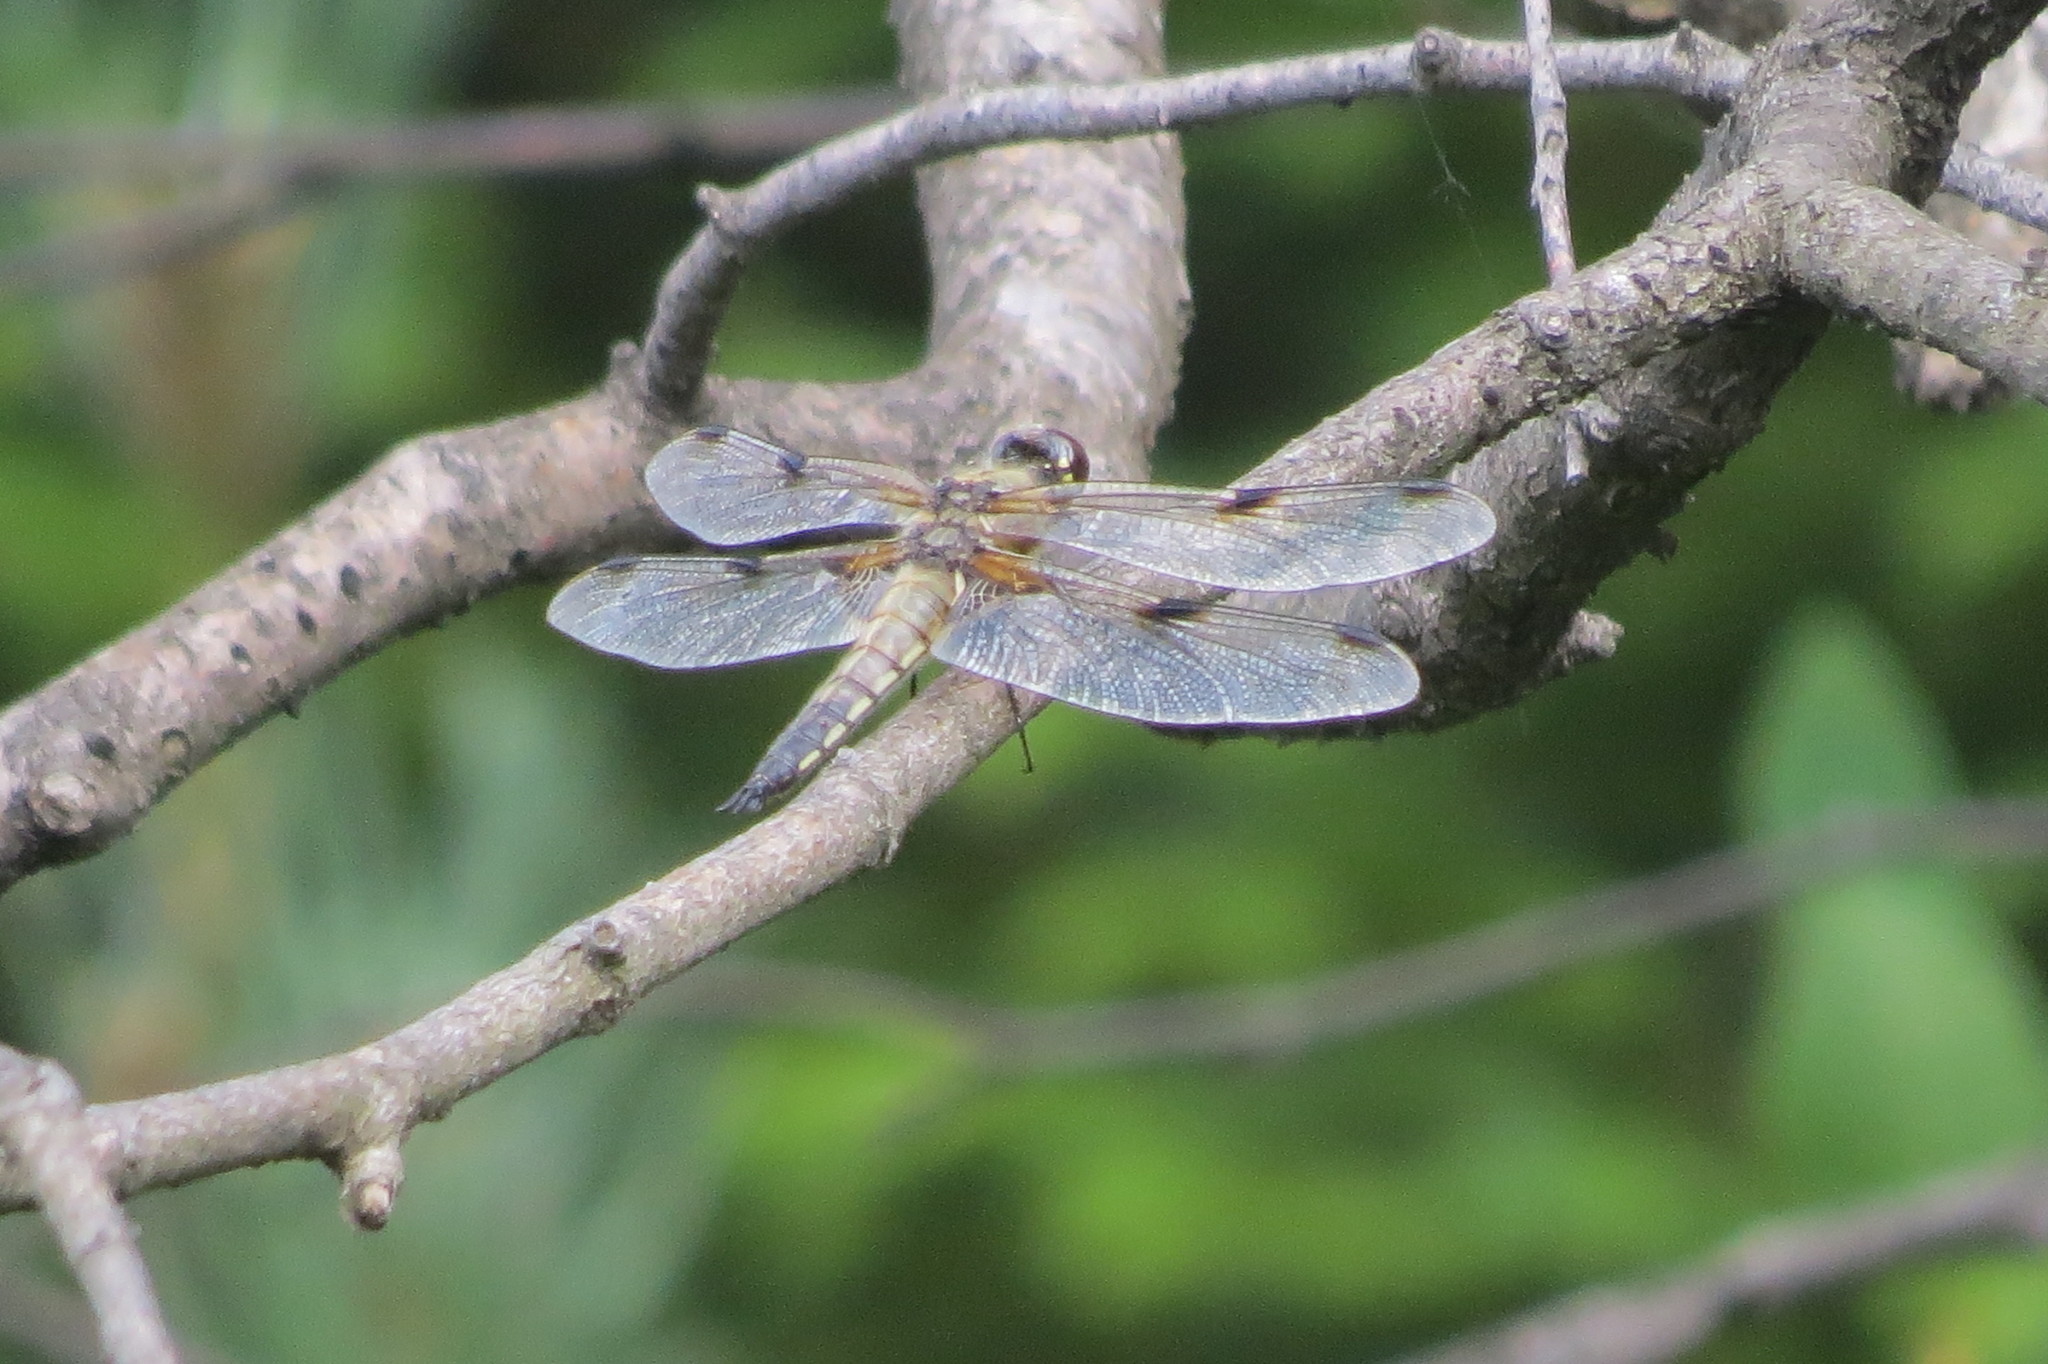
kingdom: Animalia
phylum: Arthropoda
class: Insecta
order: Odonata
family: Libellulidae
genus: Libellula
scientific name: Libellula quadrimaculata
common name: Four-spotted chaser
